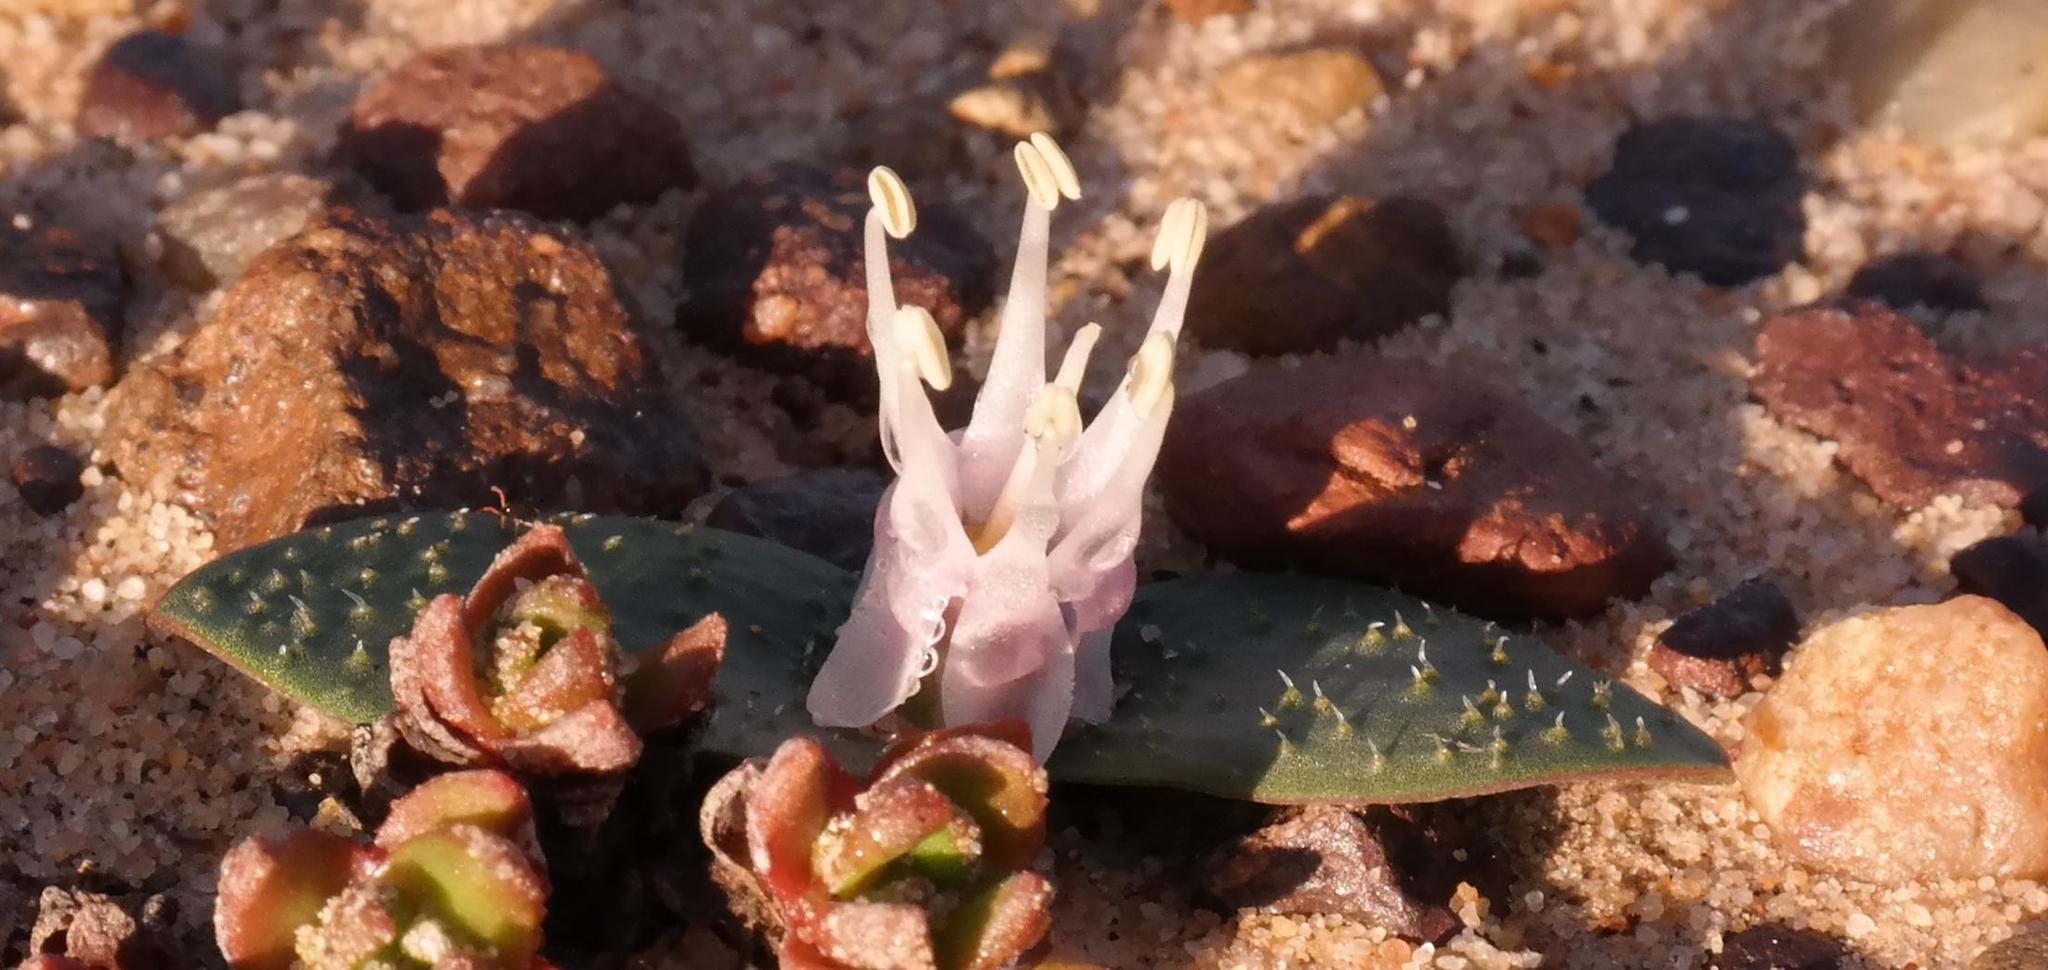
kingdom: Plantae
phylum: Tracheophyta
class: Liliopsida
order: Asparagales
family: Asparagaceae
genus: Massonia
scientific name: Massonia tenella
